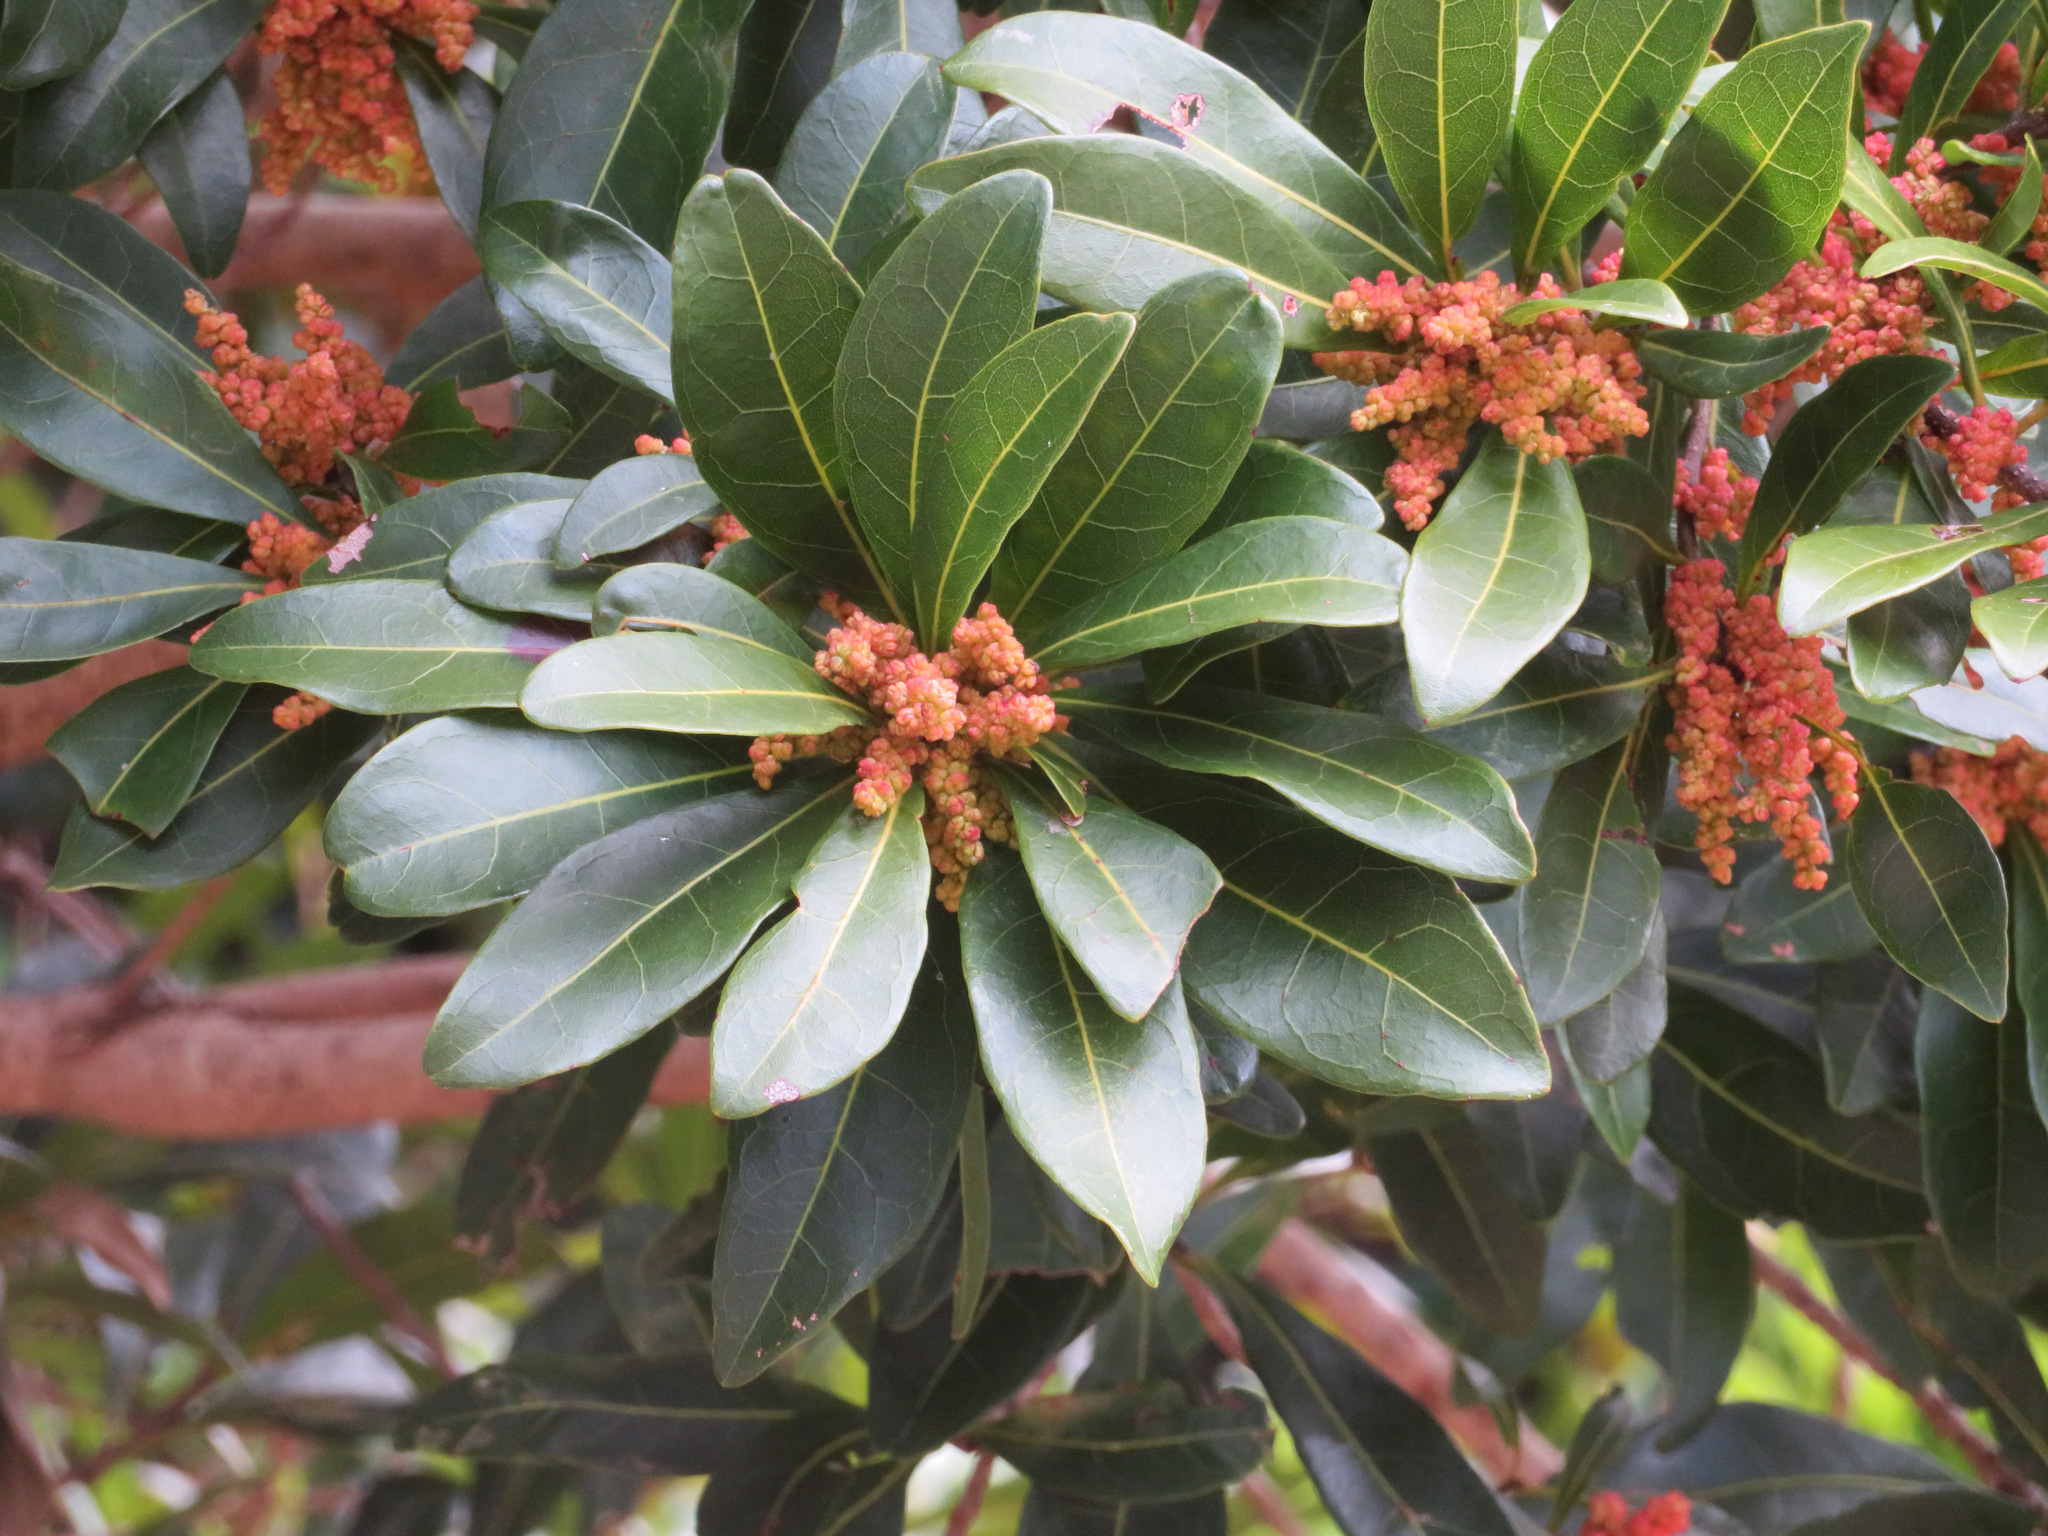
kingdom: Plantae
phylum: Tracheophyta
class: Magnoliopsida
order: Fagales
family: Myricaceae
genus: Morella
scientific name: Morella rubra
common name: Red bayberry
